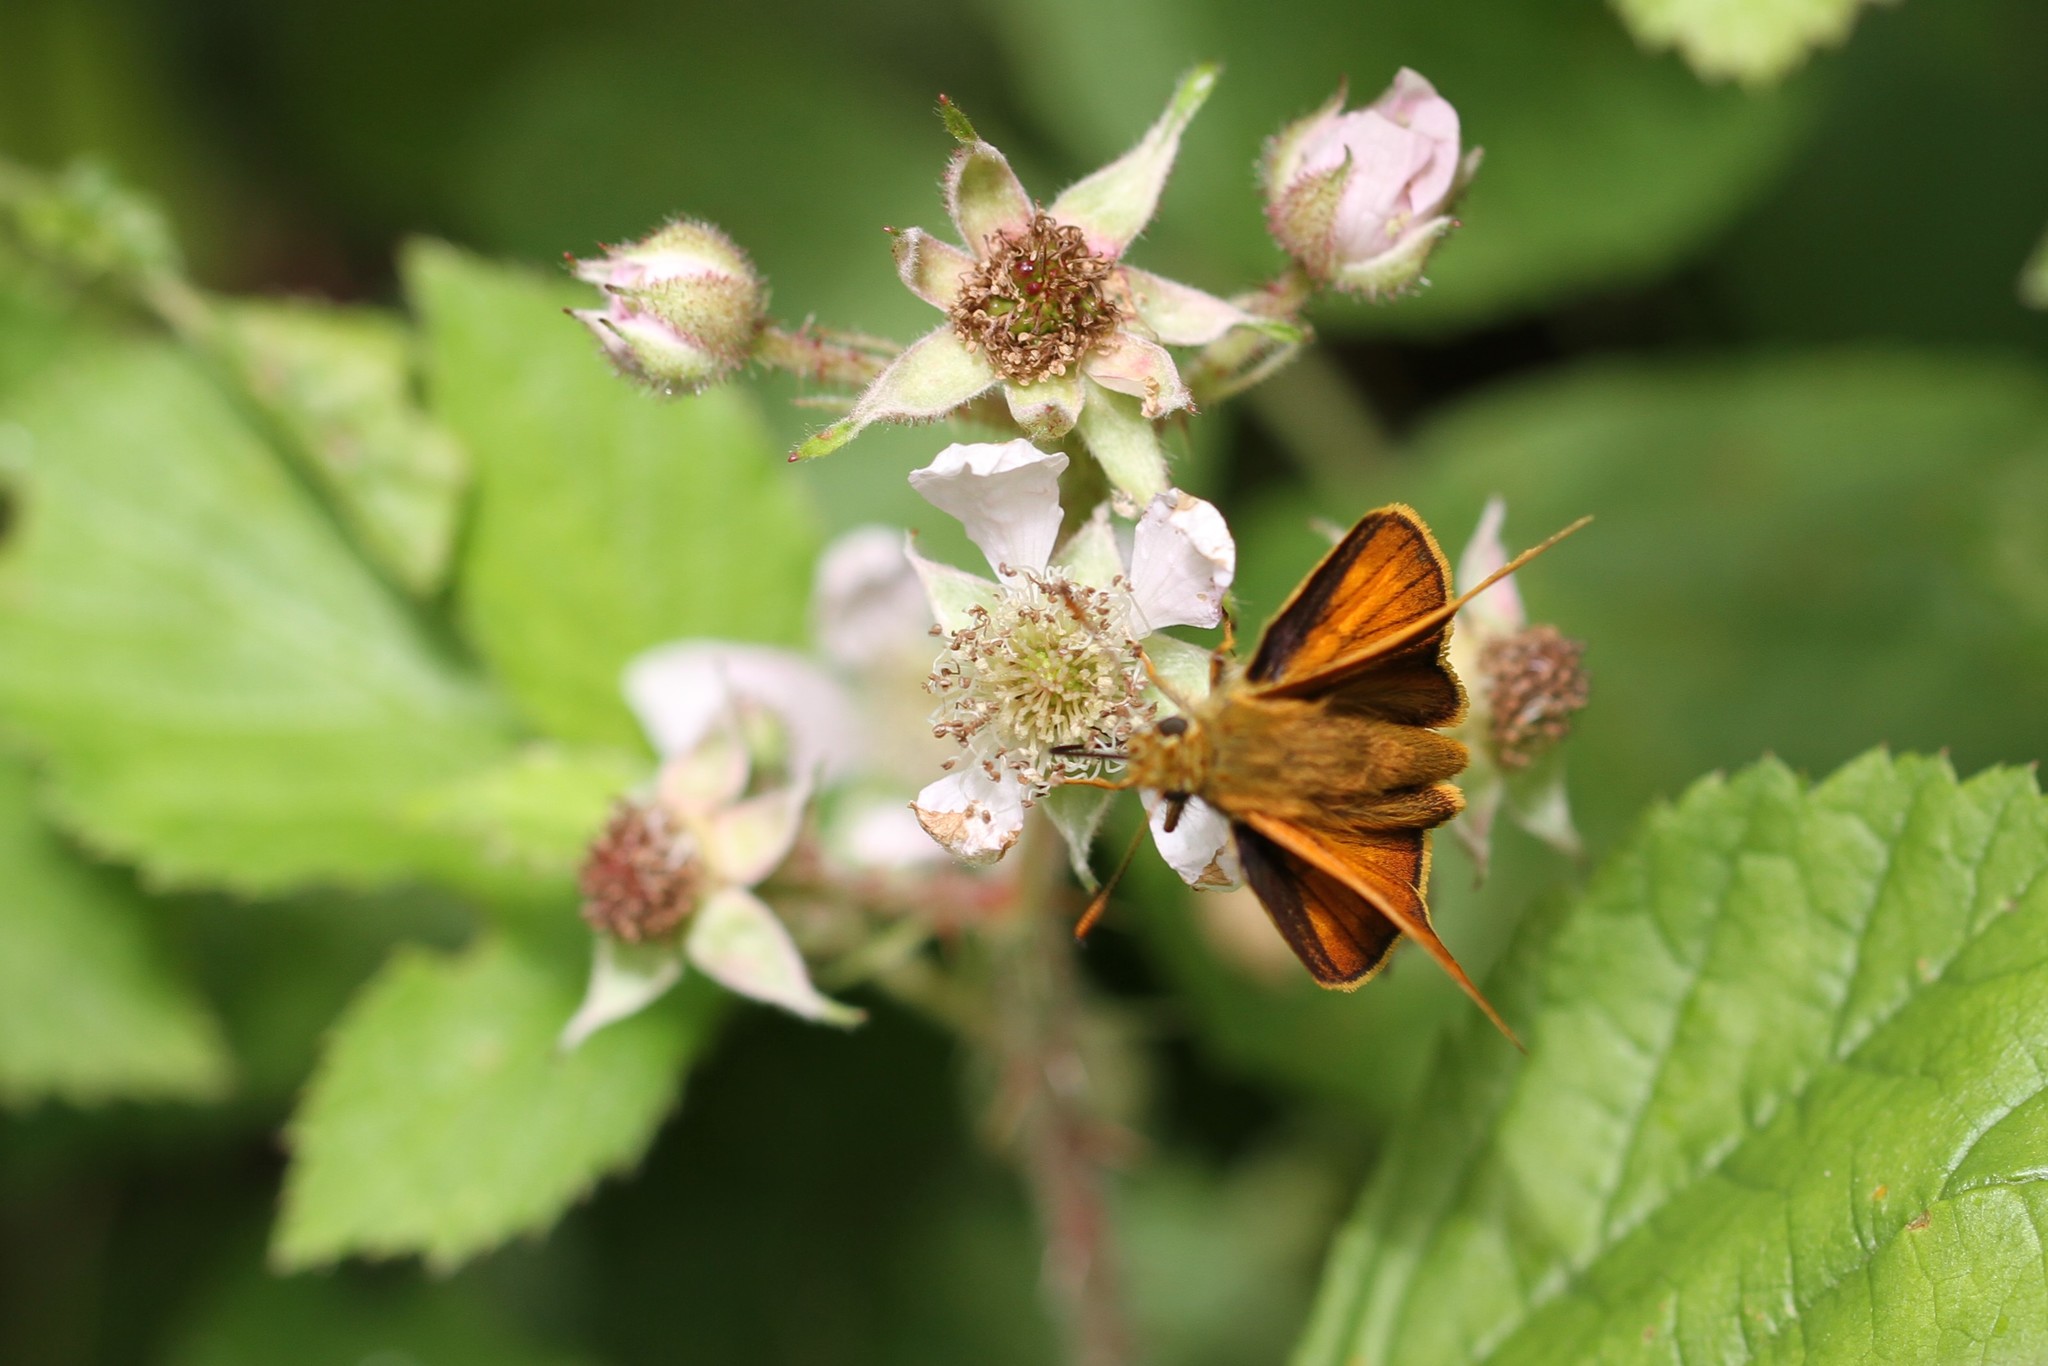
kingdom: Animalia
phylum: Arthropoda
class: Insecta
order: Lepidoptera
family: Hesperiidae
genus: Ochlodes
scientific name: Ochlodes venata
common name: Large skipper
